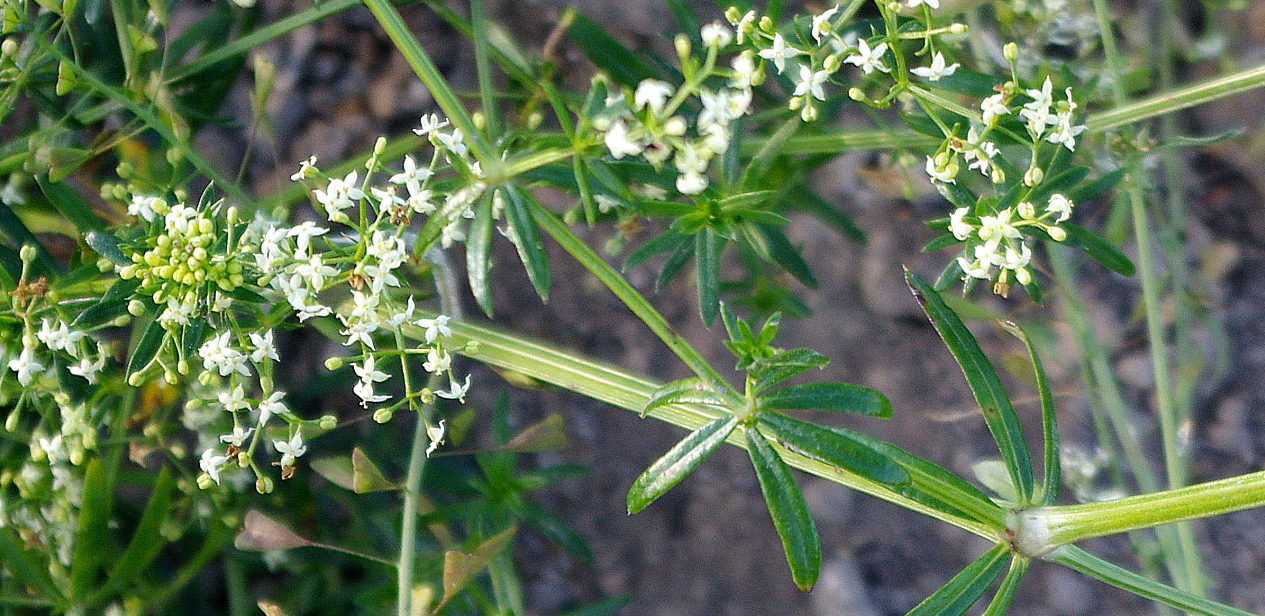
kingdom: Plantae
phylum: Tracheophyta
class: Magnoliopsida
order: Gentianales
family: Rubiaceae
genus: Galium
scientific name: Galium mollugo
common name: Hedge bedstraw
